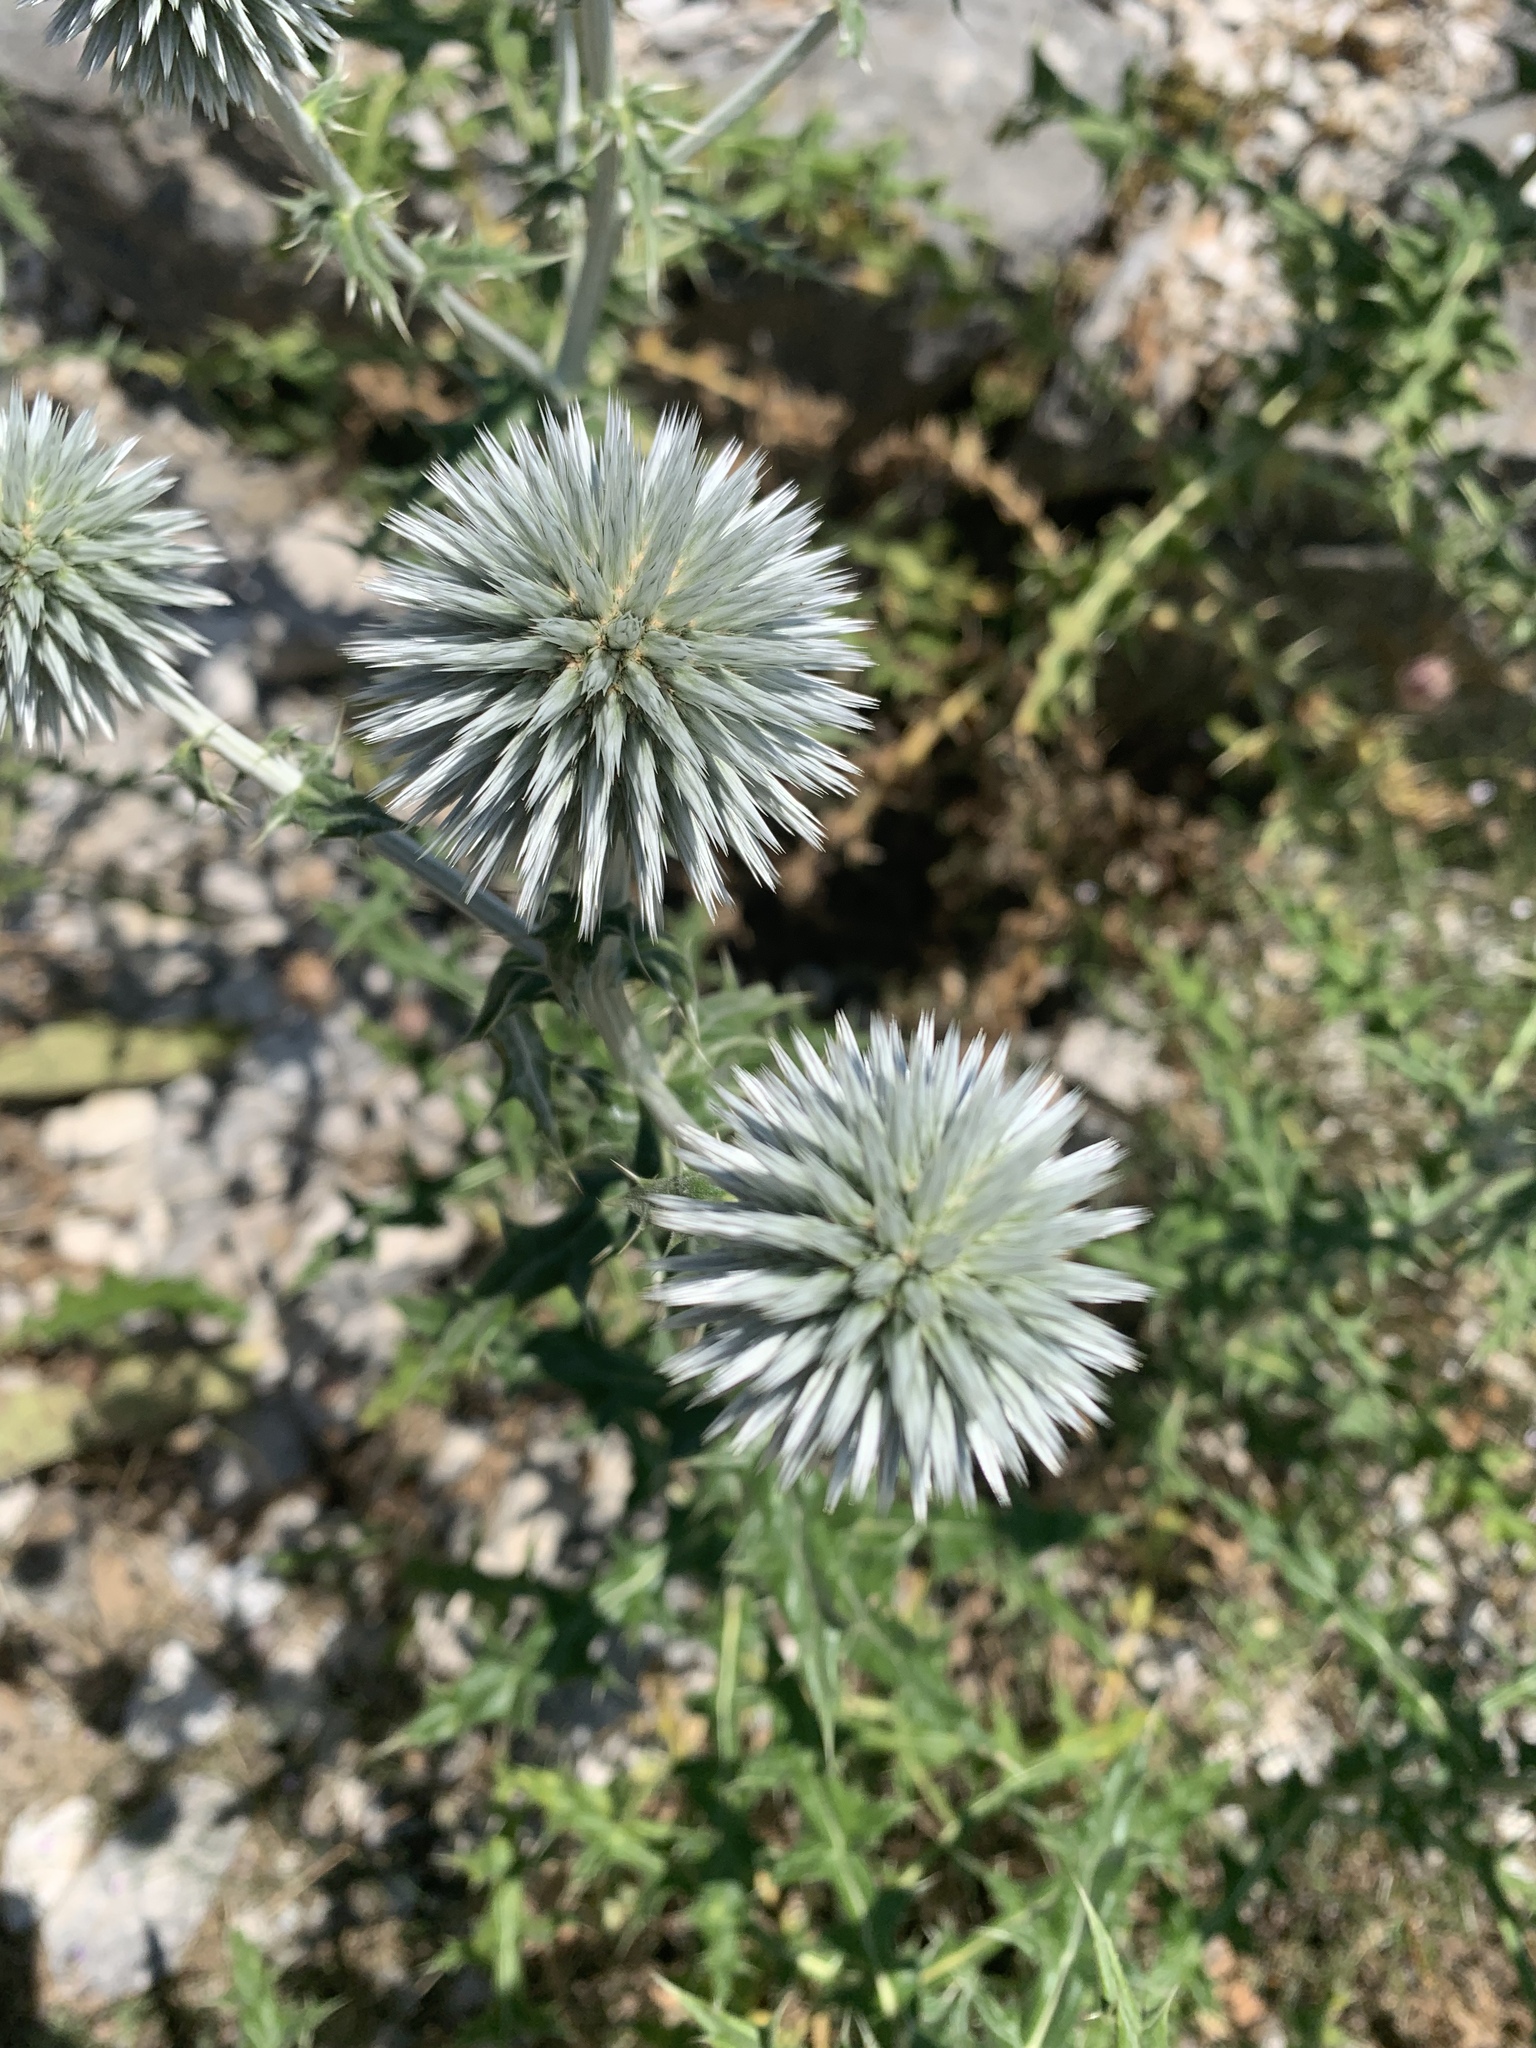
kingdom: Plantae
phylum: Tracheophyta
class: Magnoliopsida
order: Asterales
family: Asteraceae
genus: Echinops
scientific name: Echinops sphaerocephalus
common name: Glandular globe-thistle
